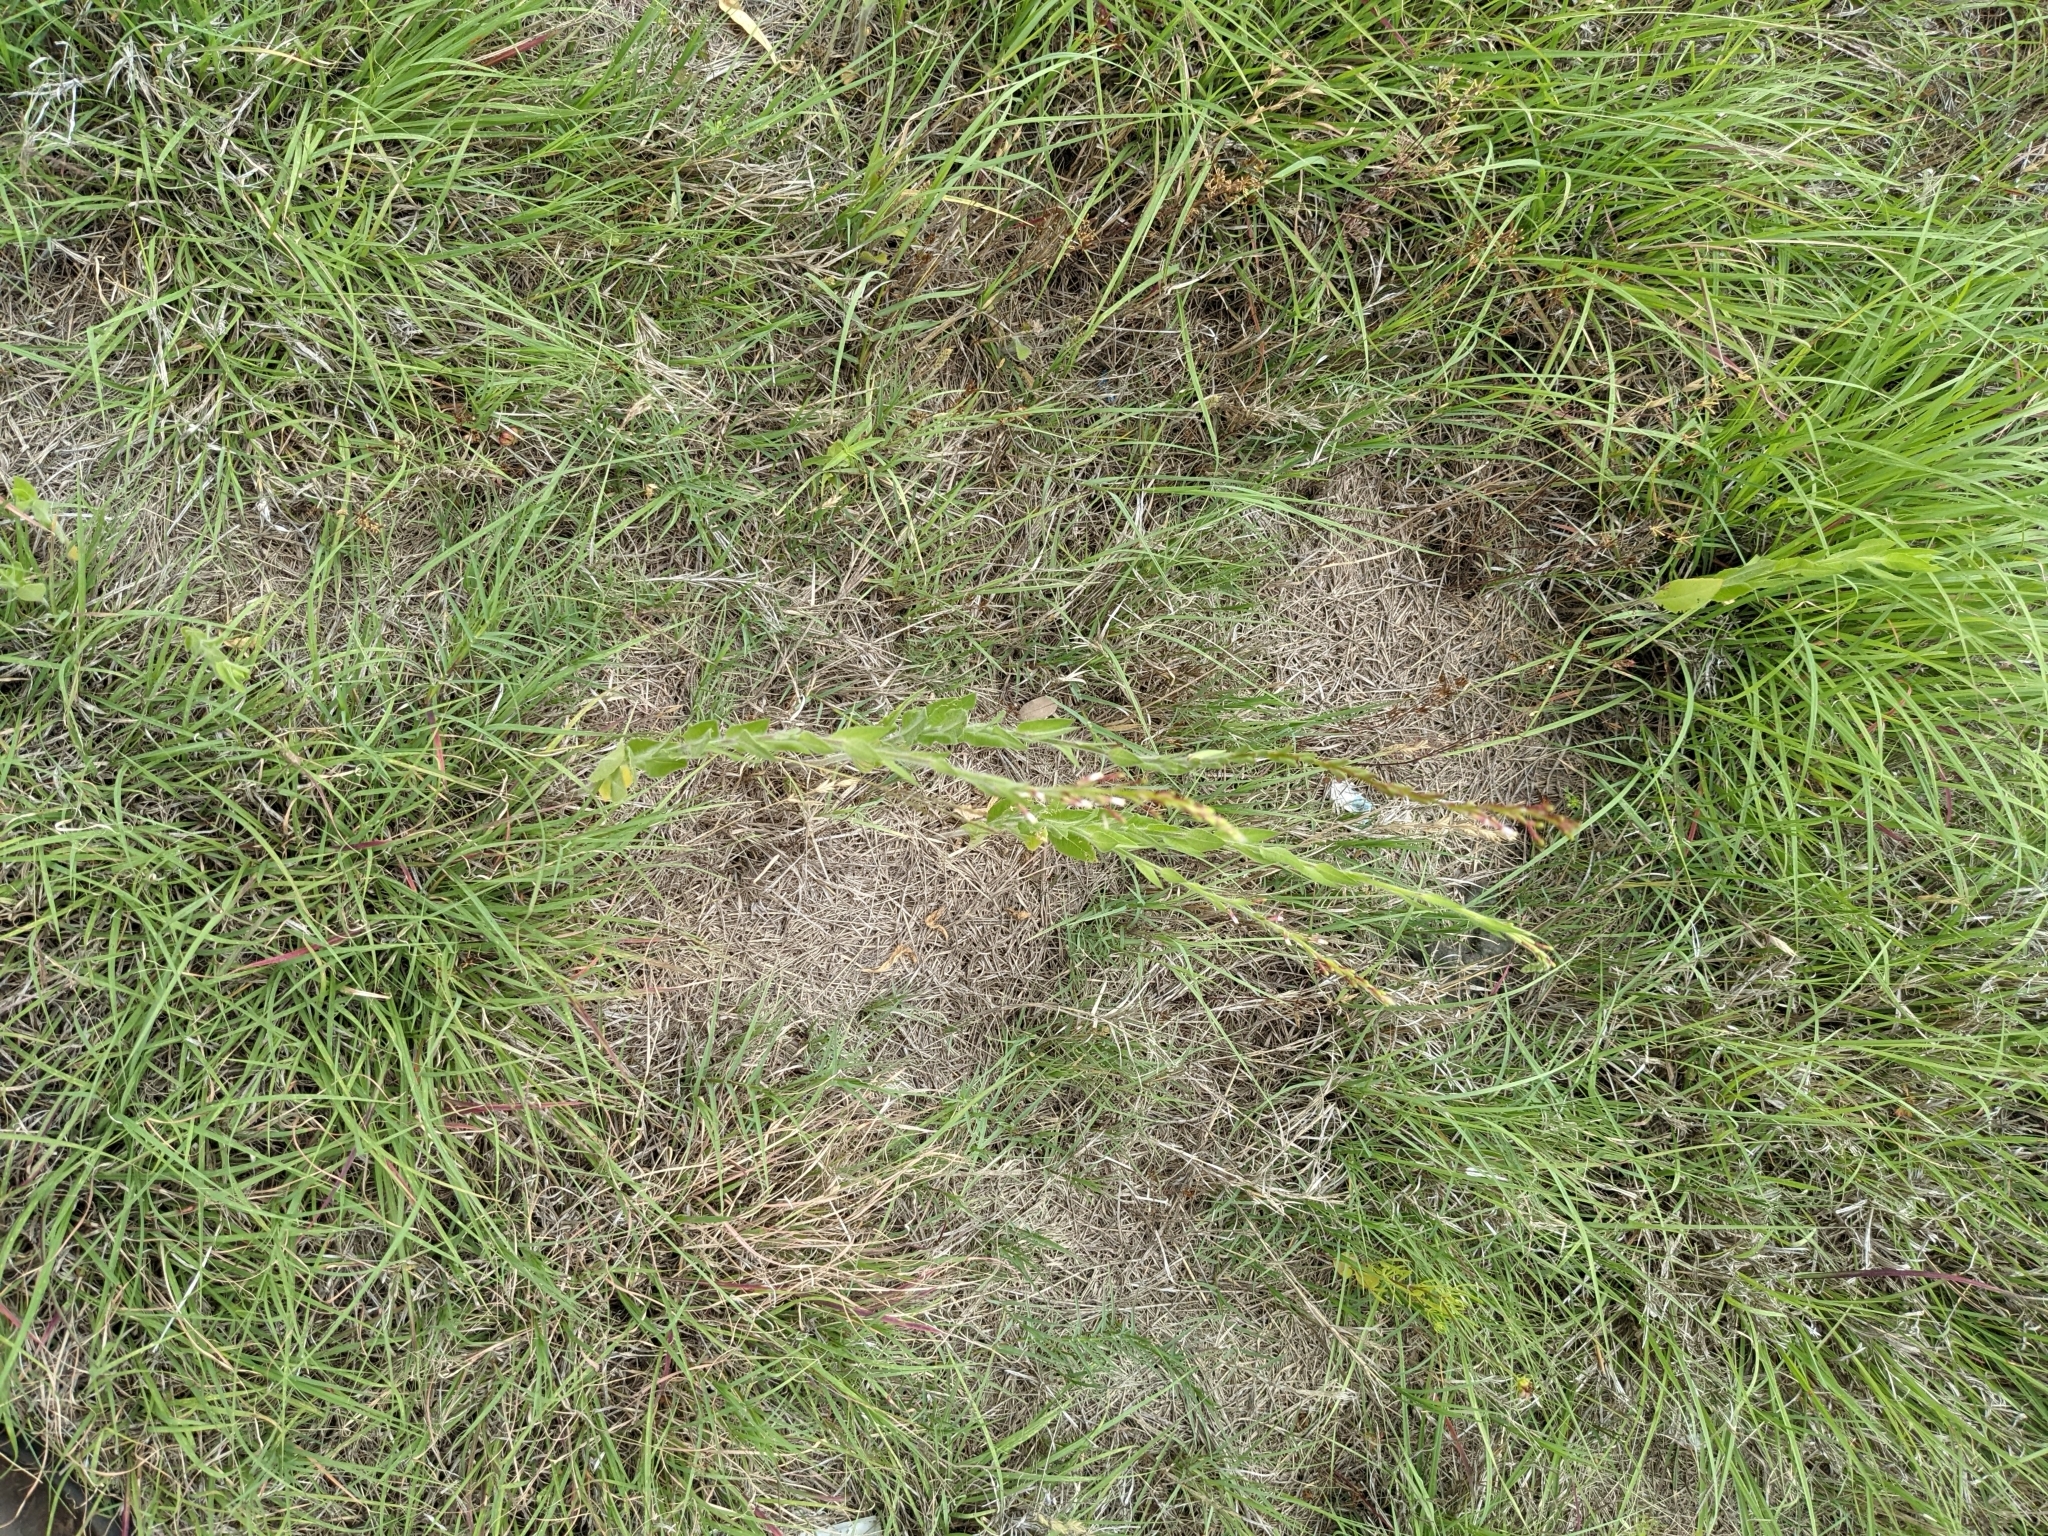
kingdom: Plantae
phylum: Tracheophyta
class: Magnoliopsida
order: Myrtales
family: Onagraceae
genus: Oenothera
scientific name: Oenothera curtiflora
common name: Velvetweed
